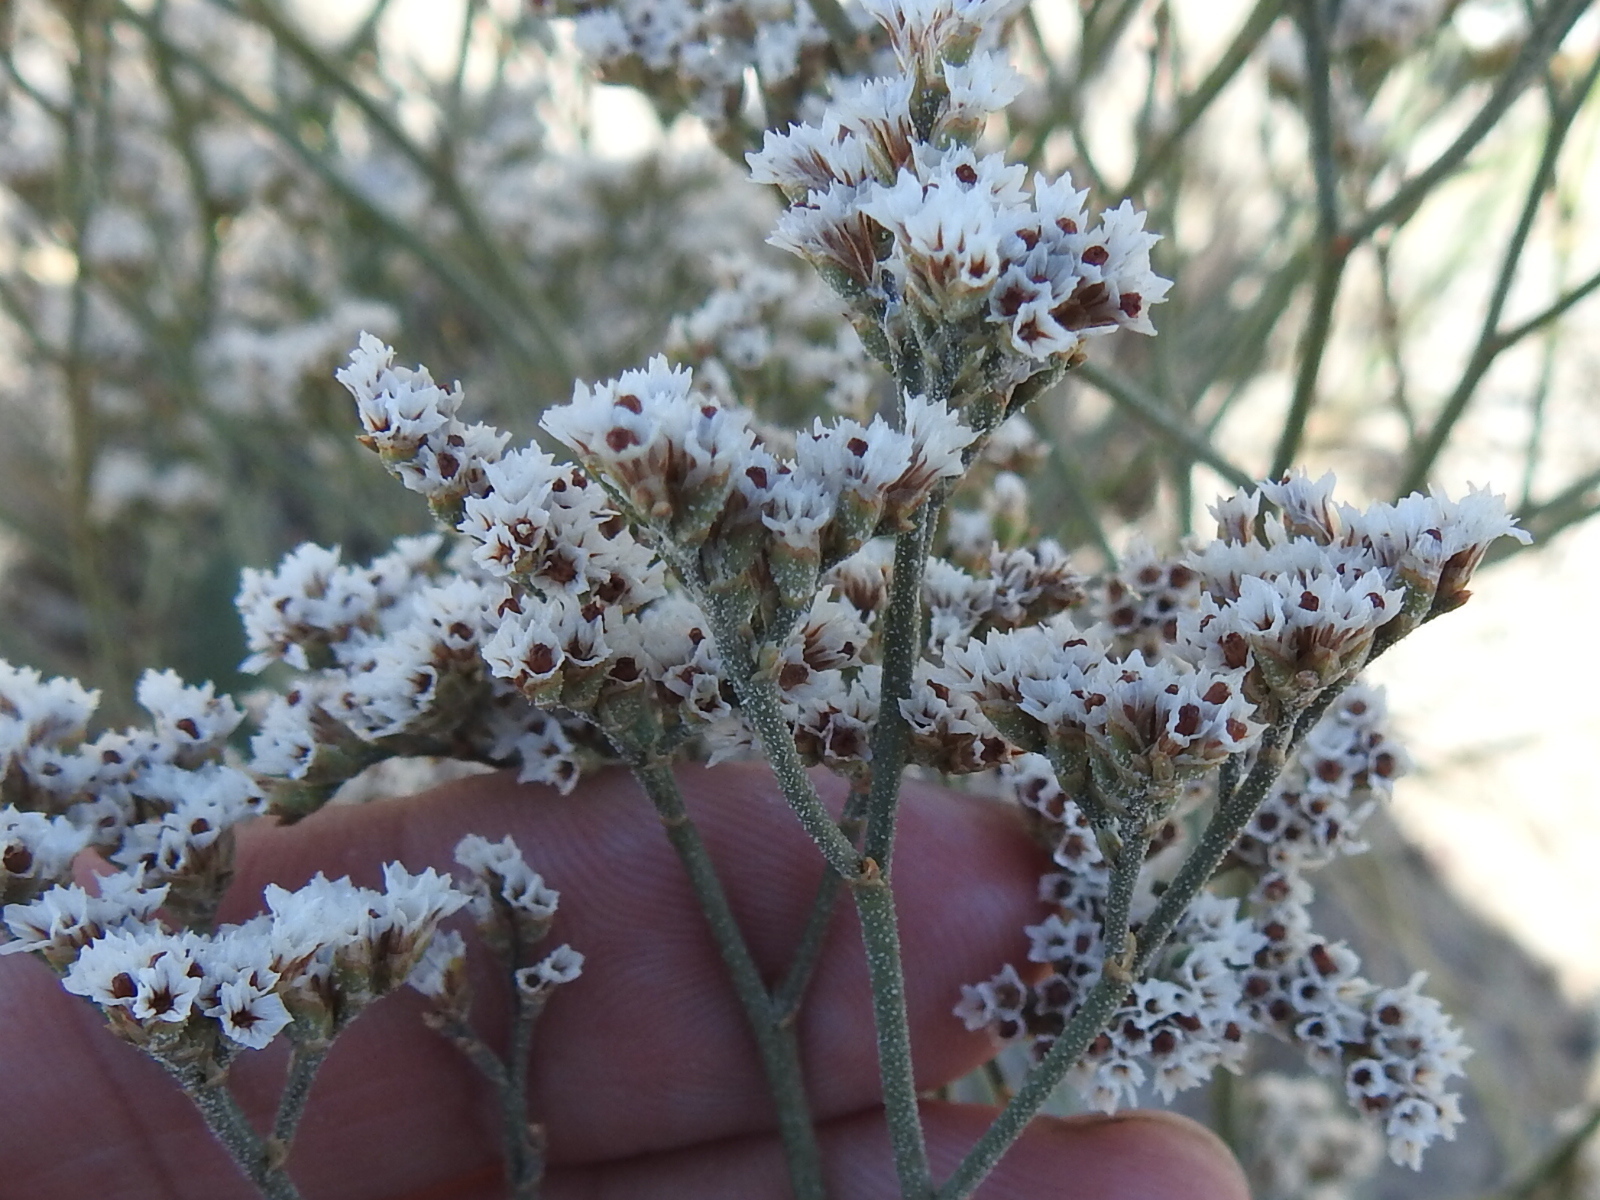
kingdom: Plantae
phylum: Tracheophyta
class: Magnoliopsida
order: Caryophyllales
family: Plumbaginaceae
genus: Limonium
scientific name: Limonium limbatum
